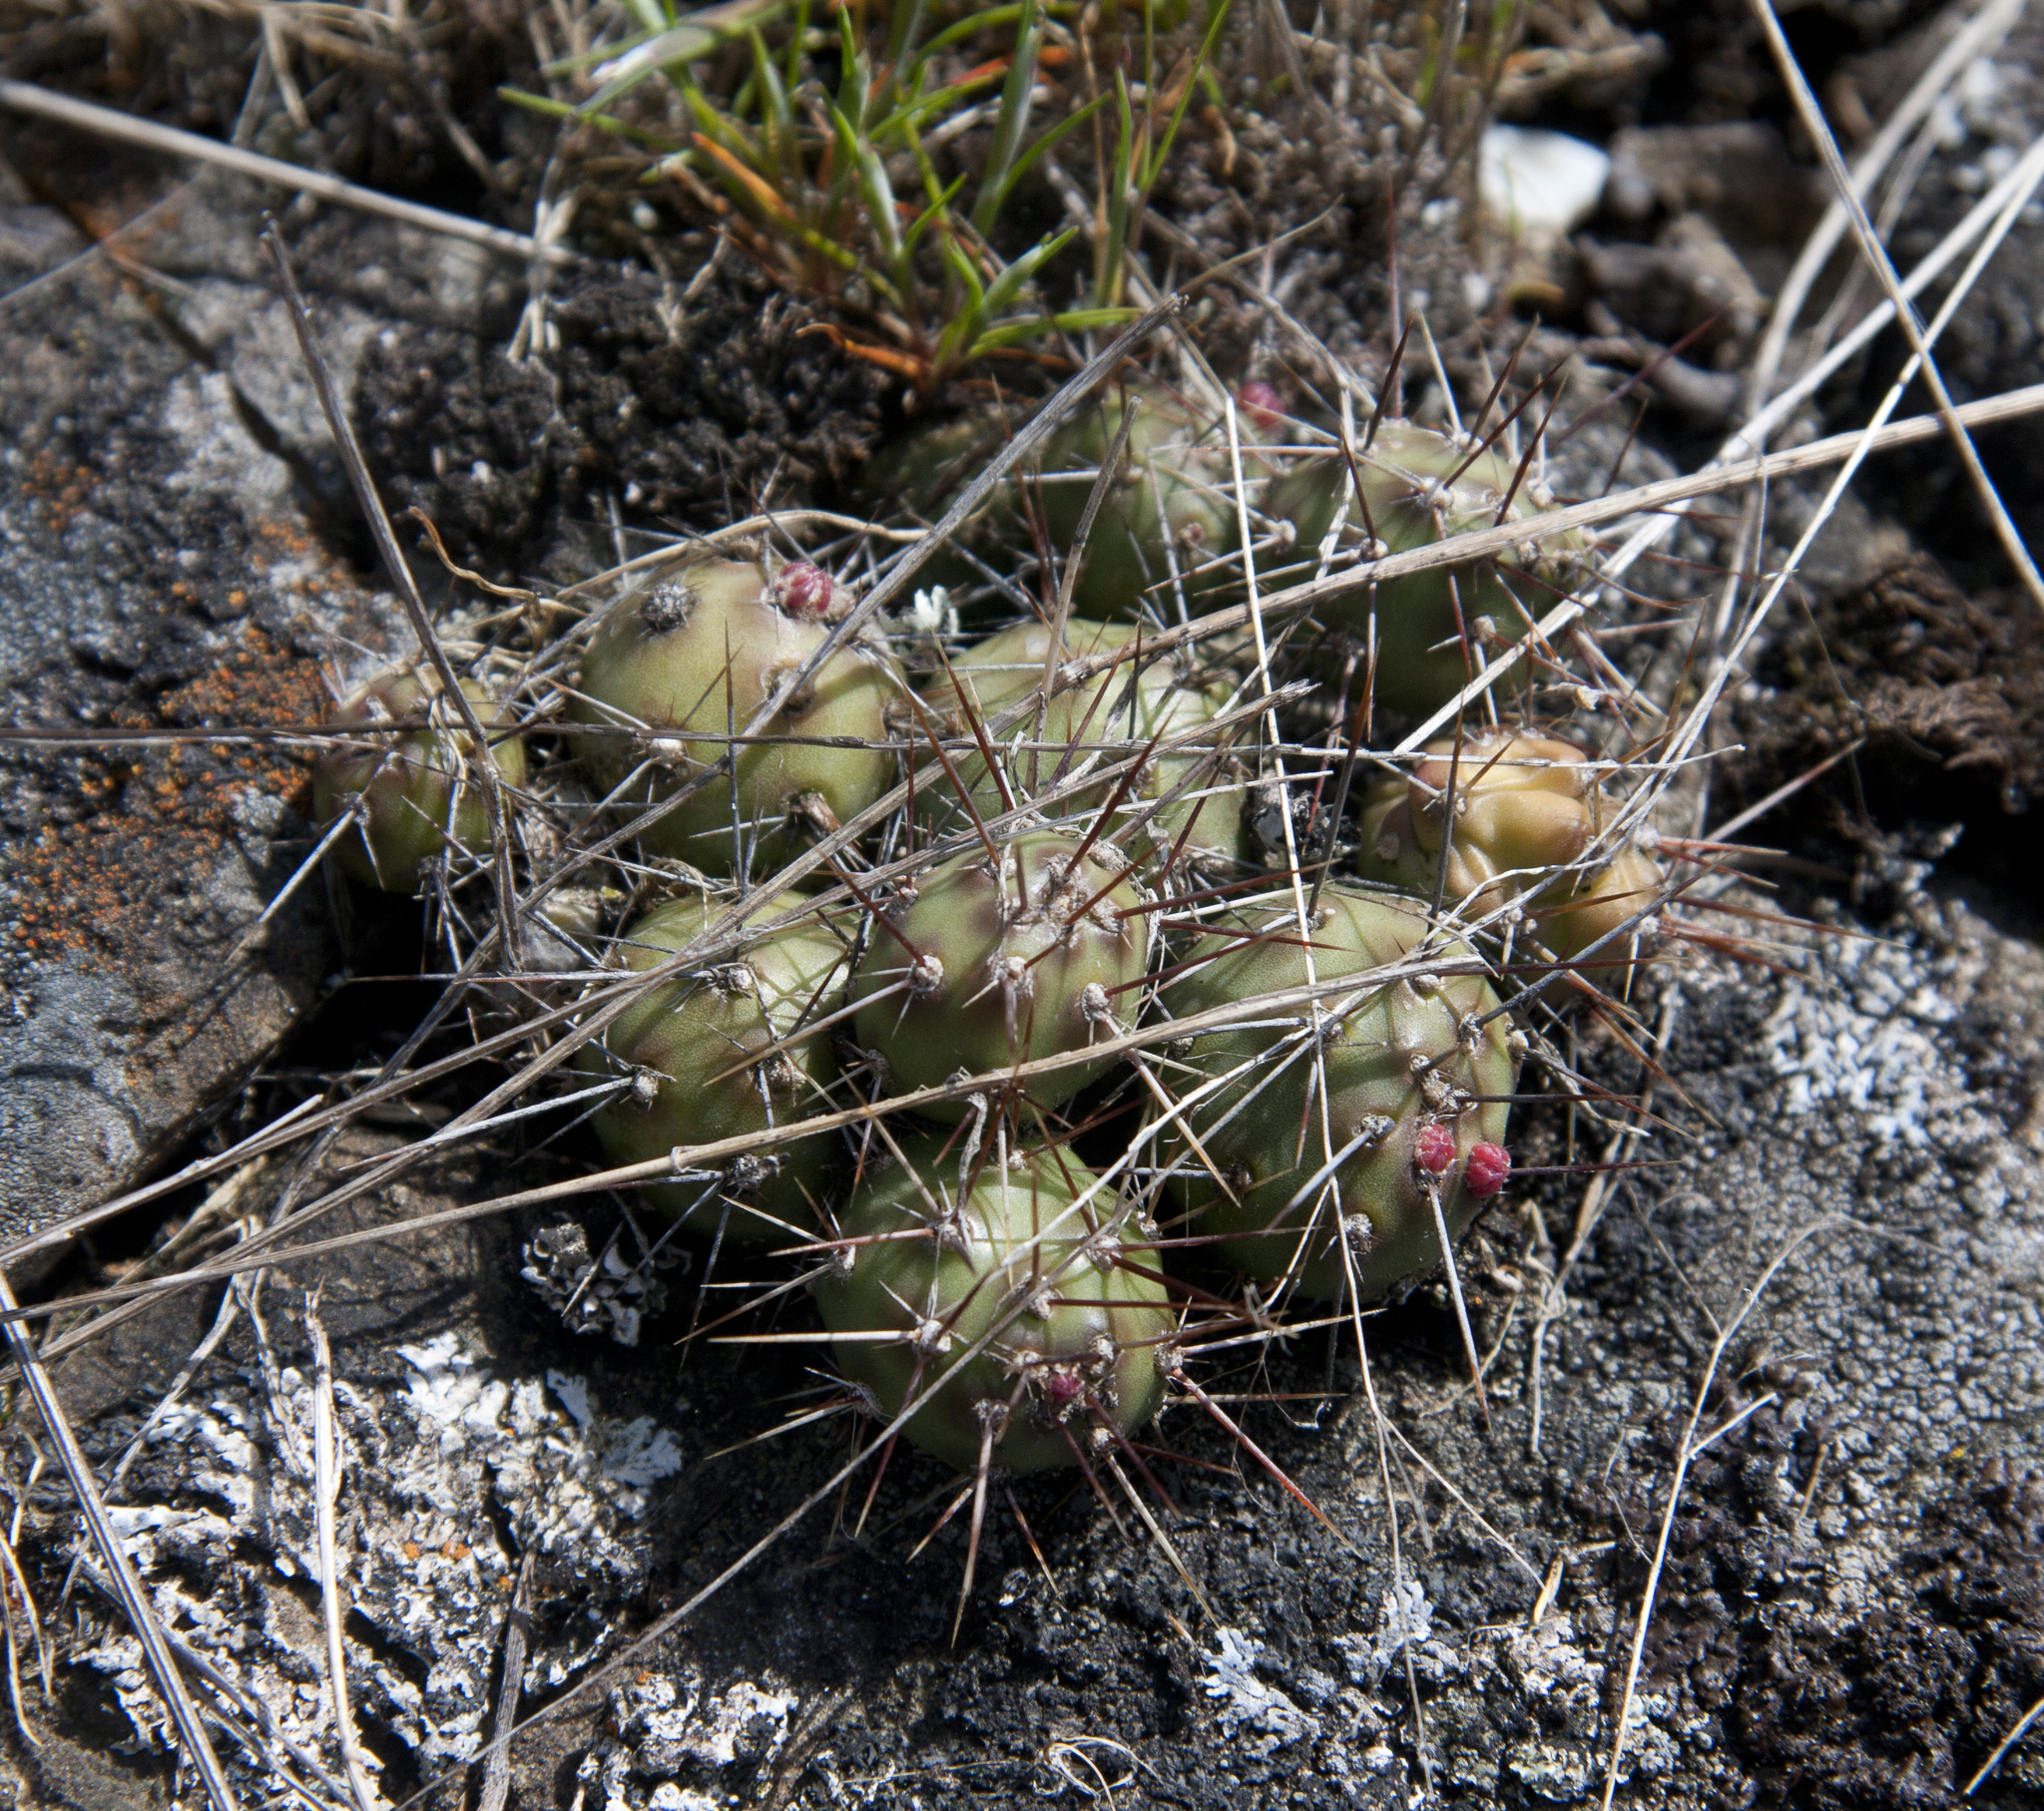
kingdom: Plantae
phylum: Tracheophyta
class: Magnoliopsida
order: Caryophyllales
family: Cactaceae
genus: Opuntia
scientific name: Opuntia fragilis
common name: Brittle cactus
